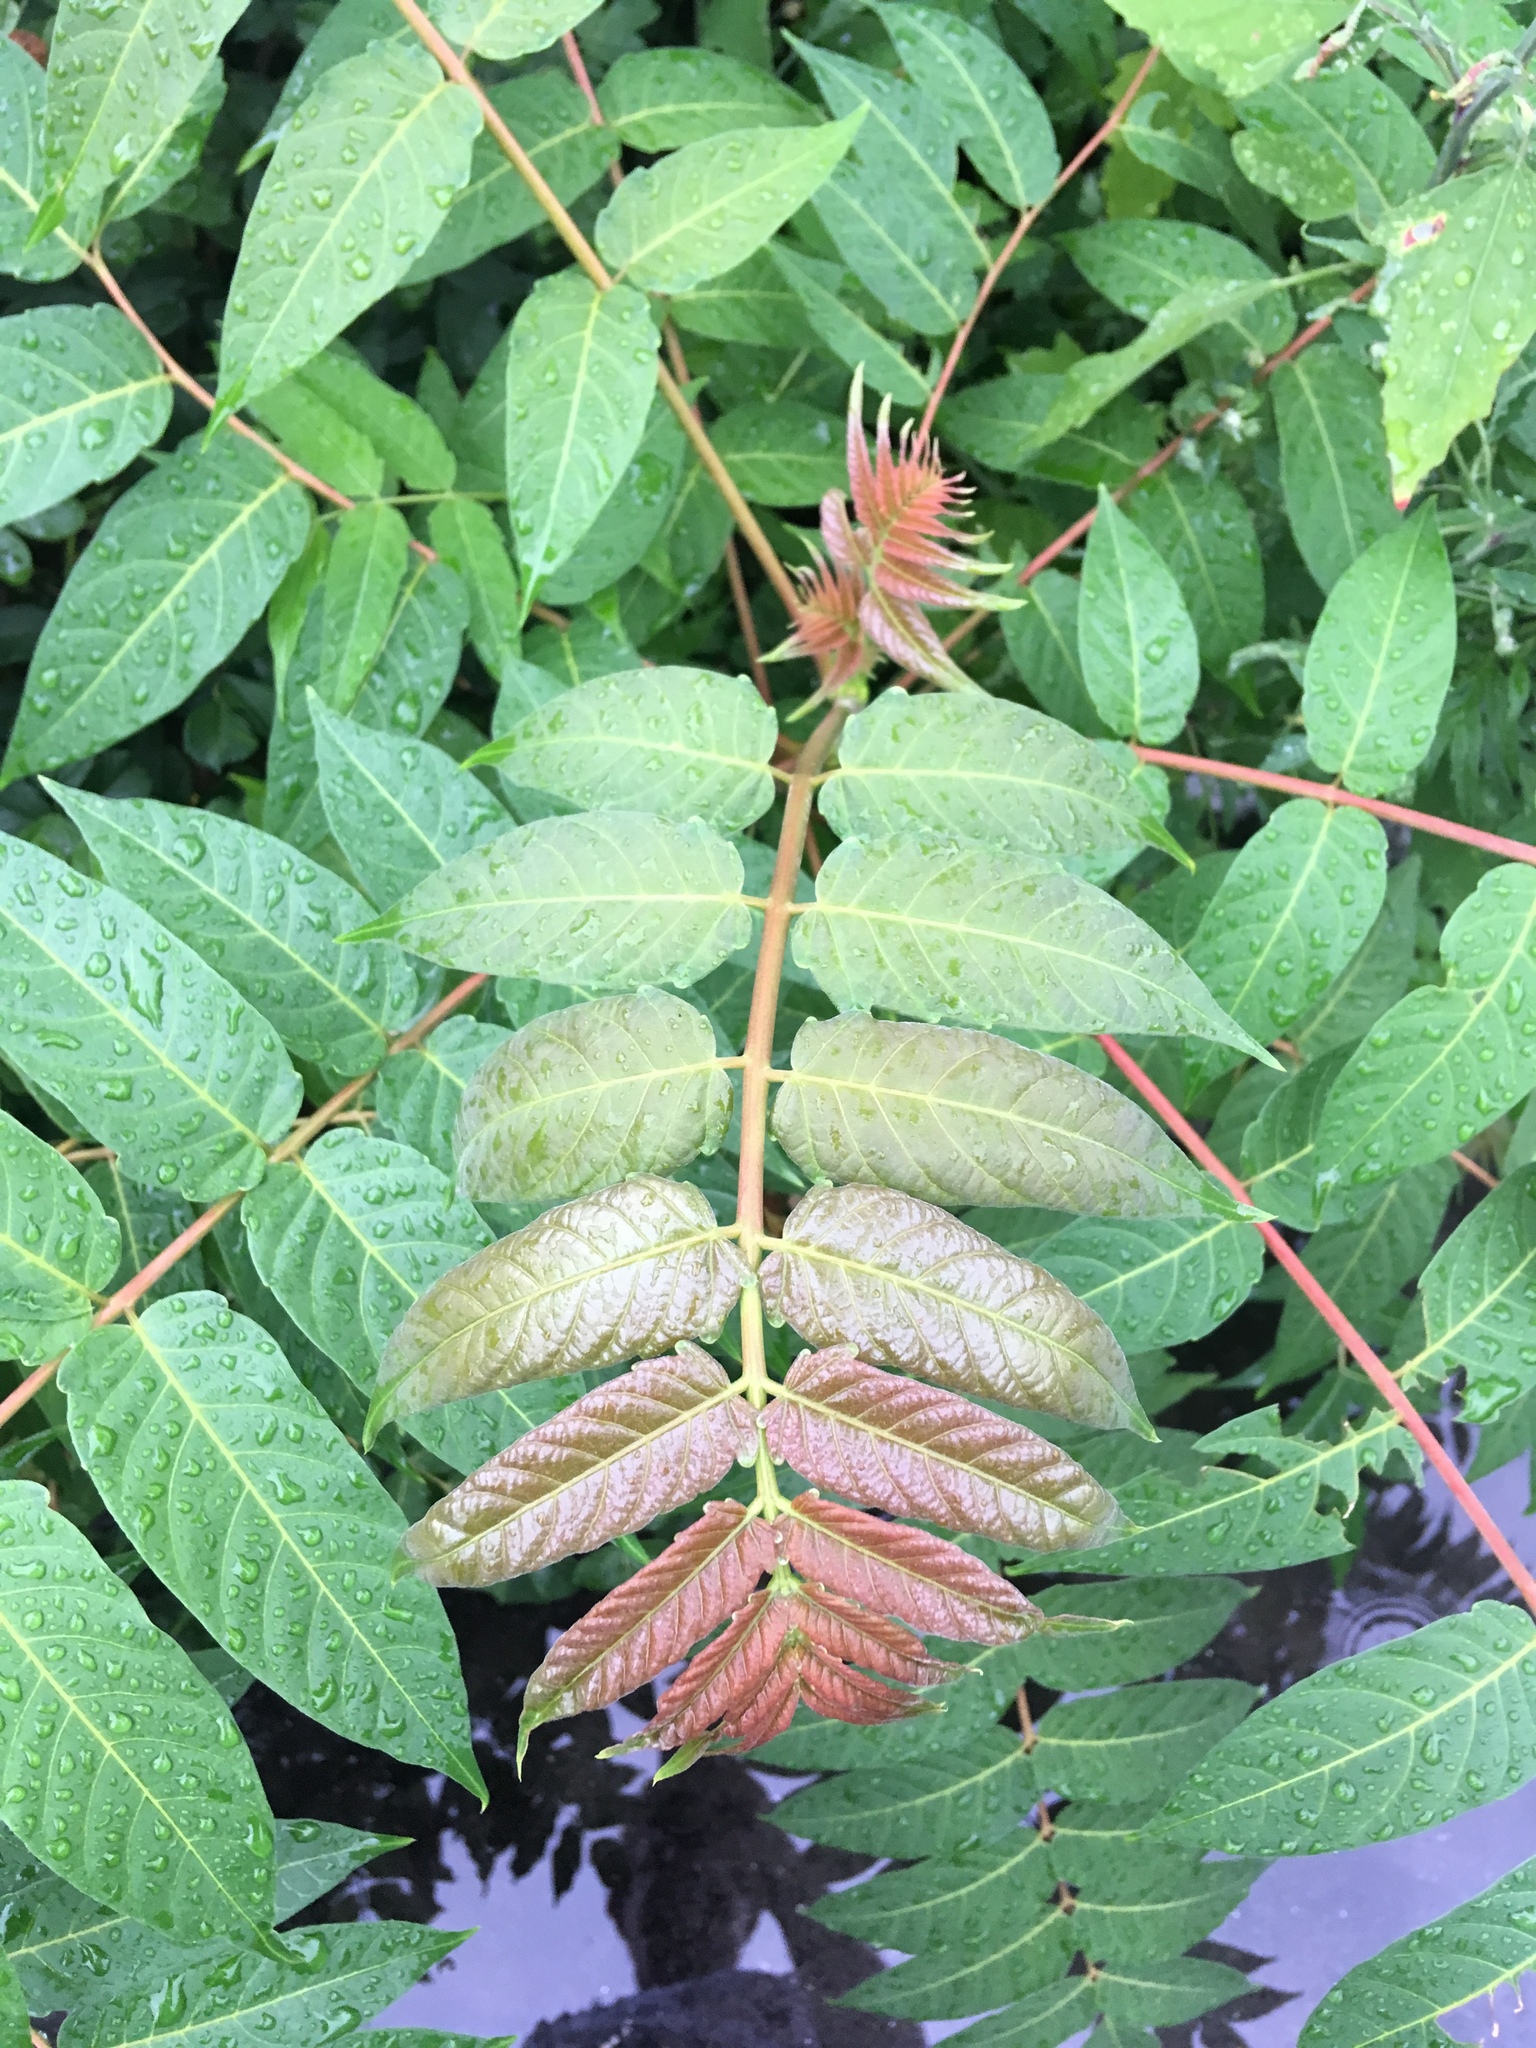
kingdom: Plantae
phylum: Tracheophyta
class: Magnoliopsida
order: Sapindales
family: Simaroubaceae
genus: Ailanthus
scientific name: Ailanthus altissima
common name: Tree-of-heaven
